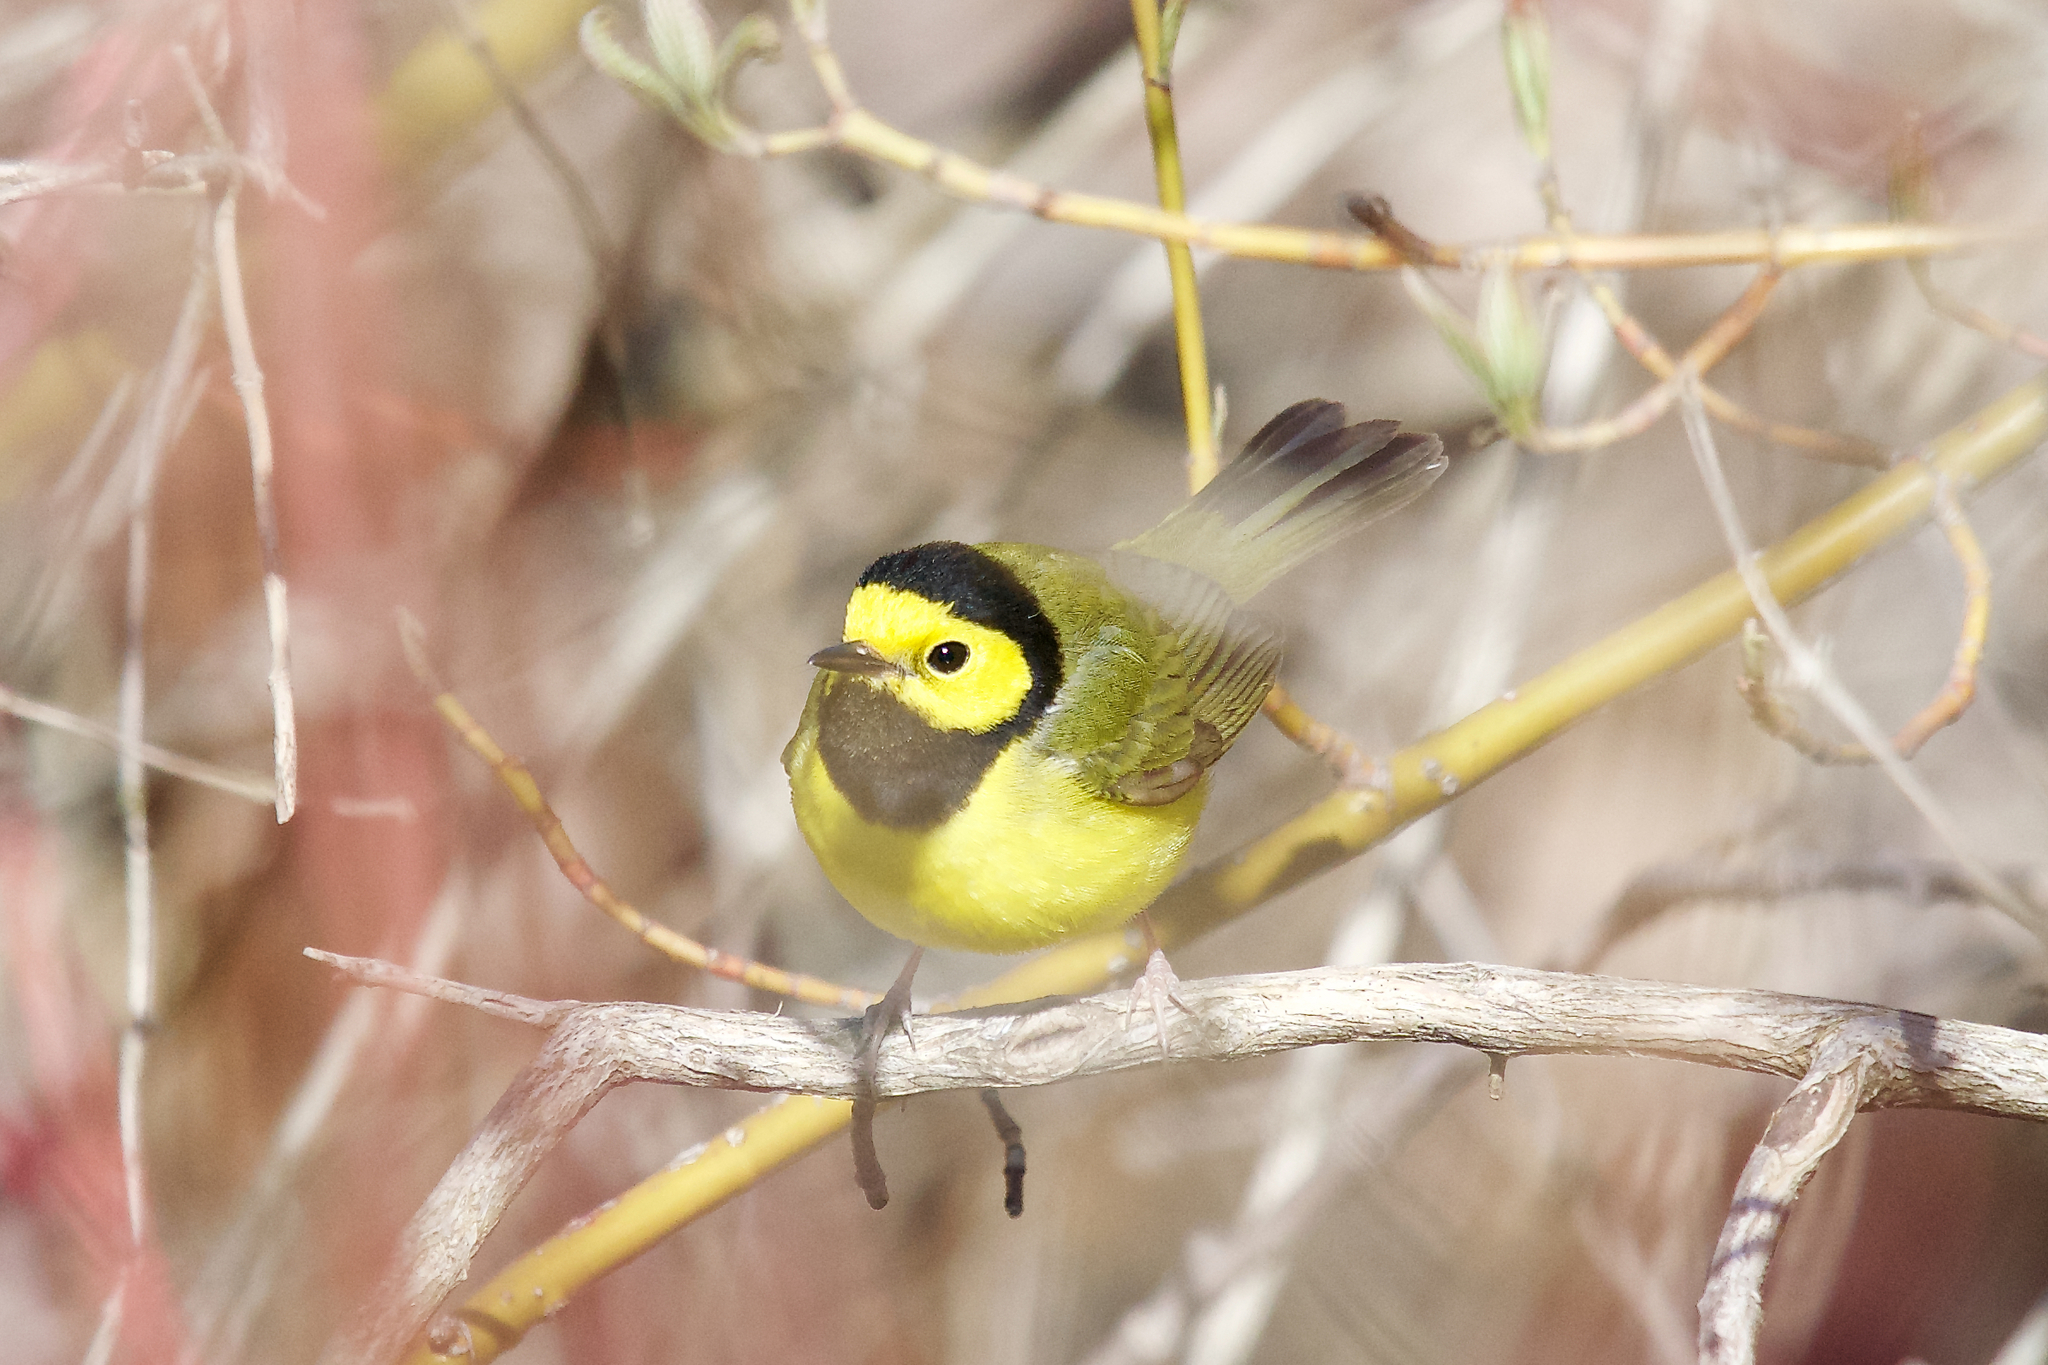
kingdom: Animalia
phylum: Chordata
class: Aves
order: Passeriformes
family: Parulidae
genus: Setophaga
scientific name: Setophaga citrina
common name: Hooded warbler
